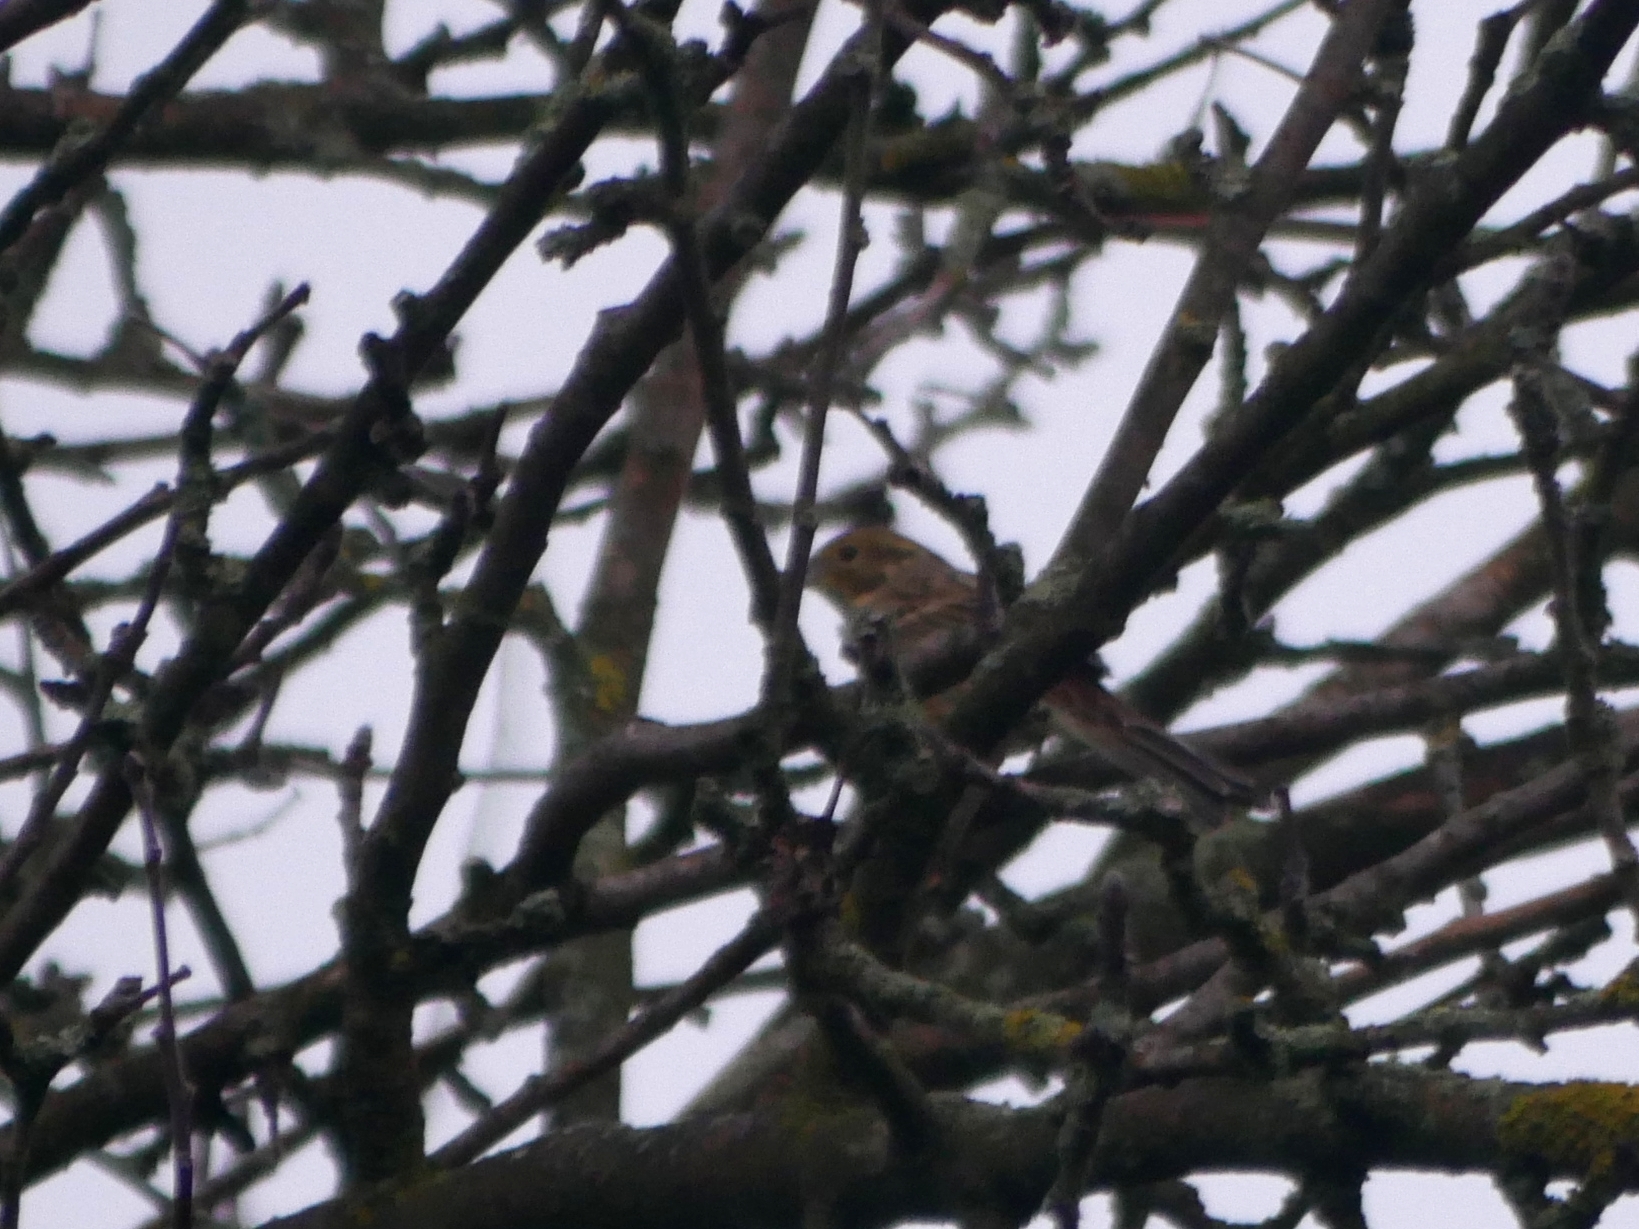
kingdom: Animalia
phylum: Chordata
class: Aves
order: Passeriformes
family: Emberizidae
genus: Emberiza
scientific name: Emberiza citrinella
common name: Yellowhammer
